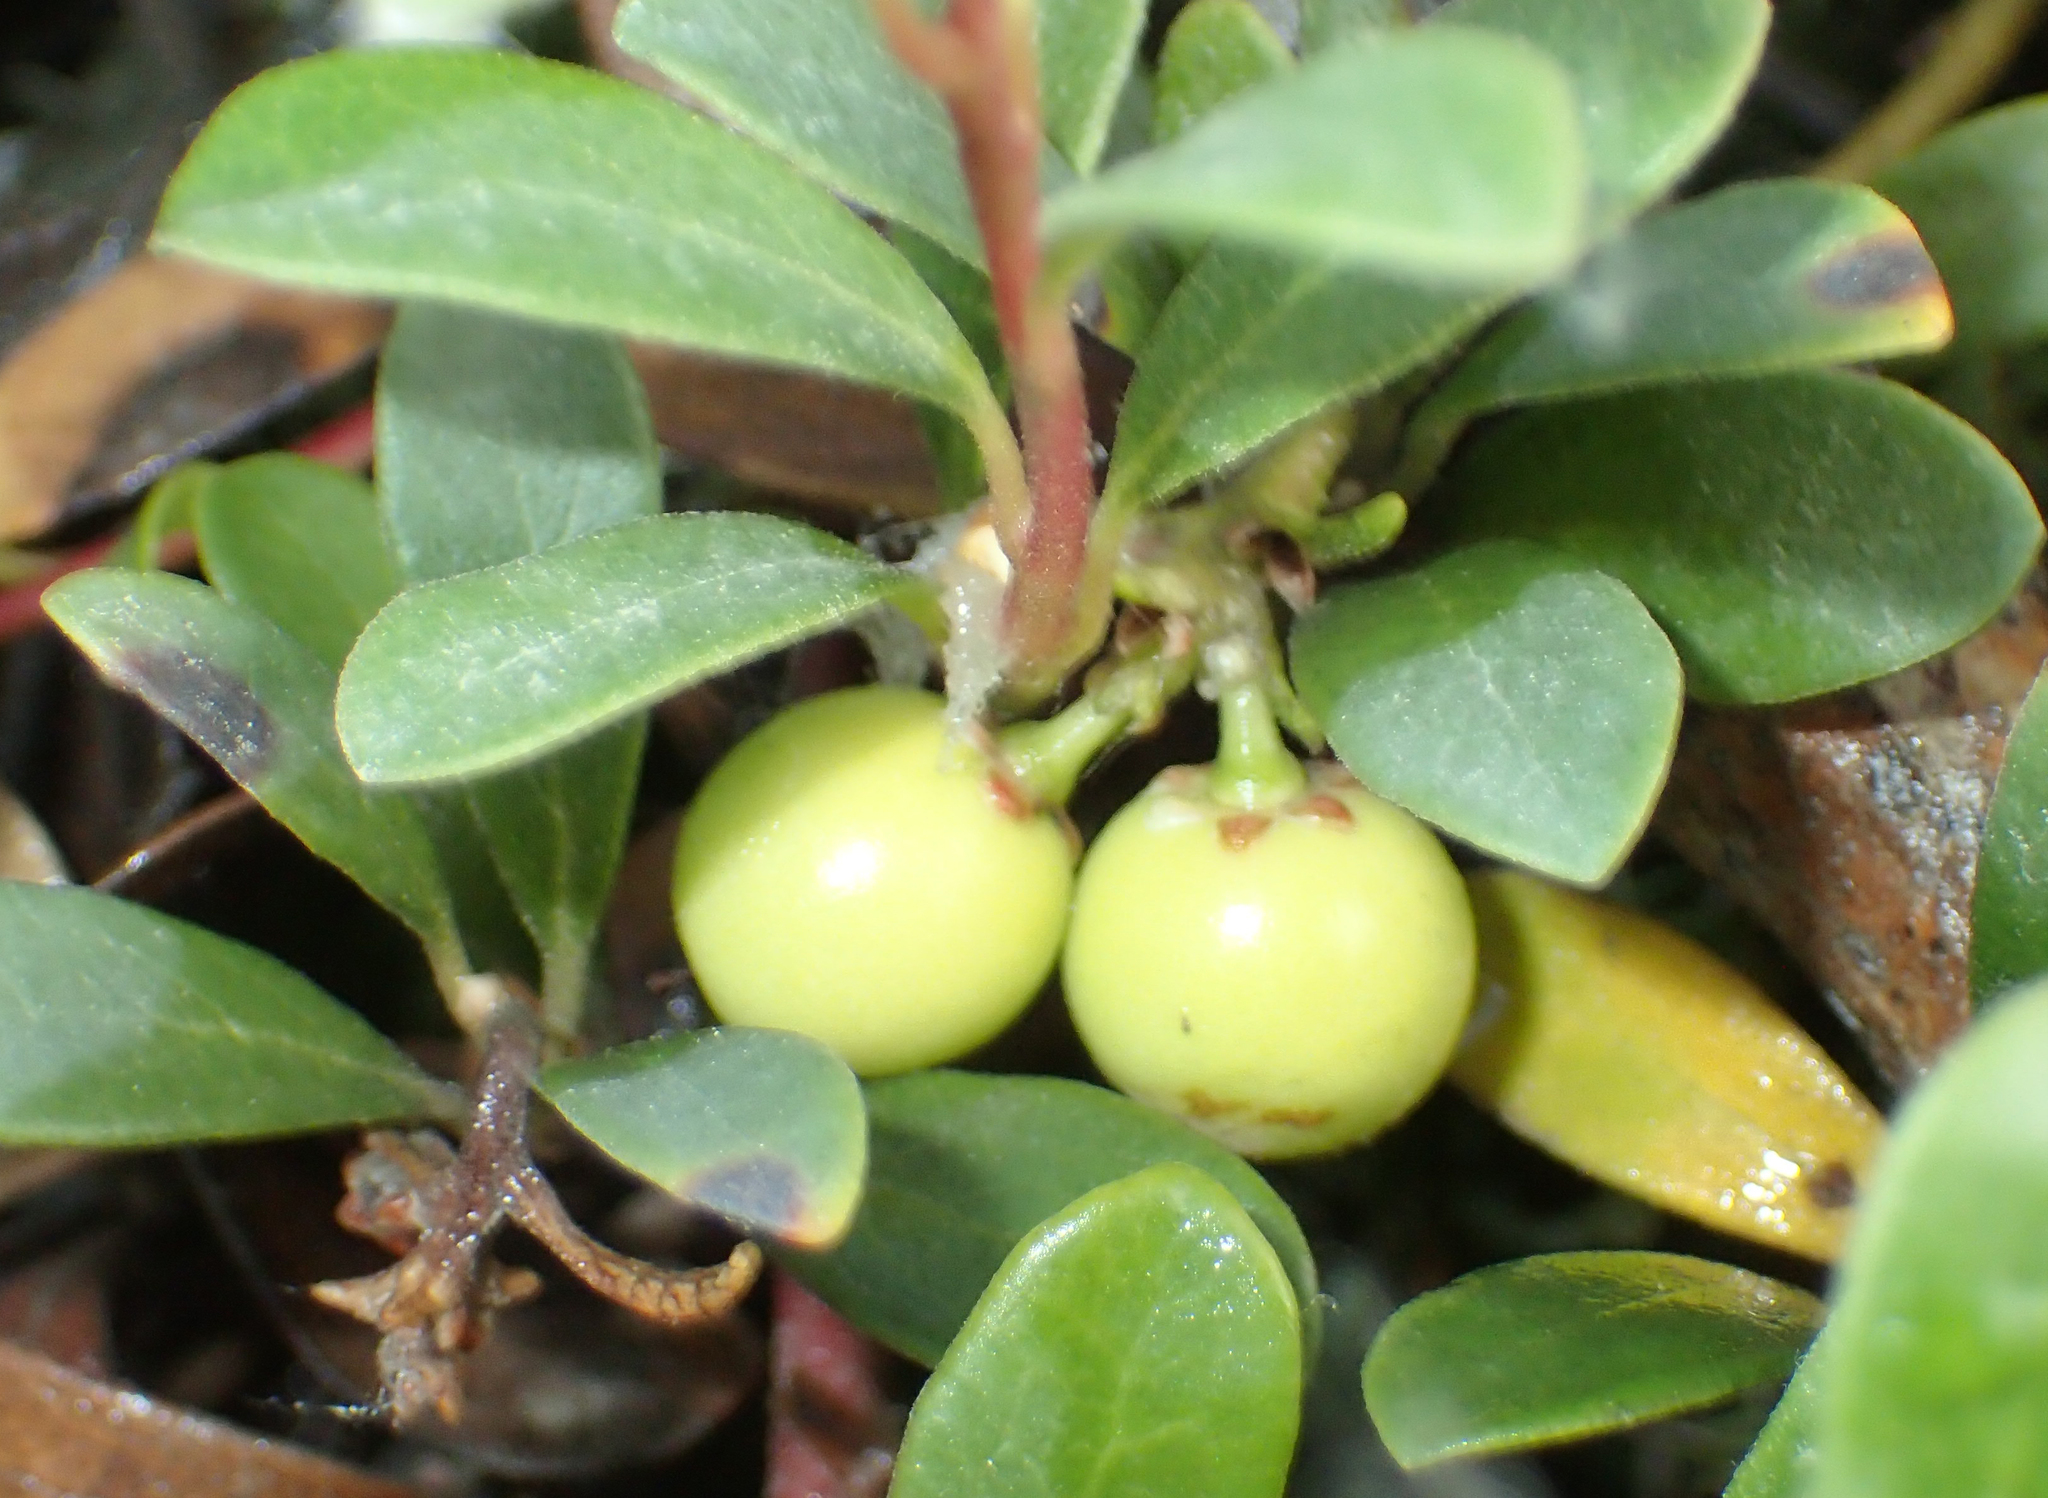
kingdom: Plantae
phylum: Tracheophyta
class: Magnoliopsida
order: Ericales
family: Ericaceae
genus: Arctostaphylos
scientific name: Arctostaphylos uva-ursi
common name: Bearberry
